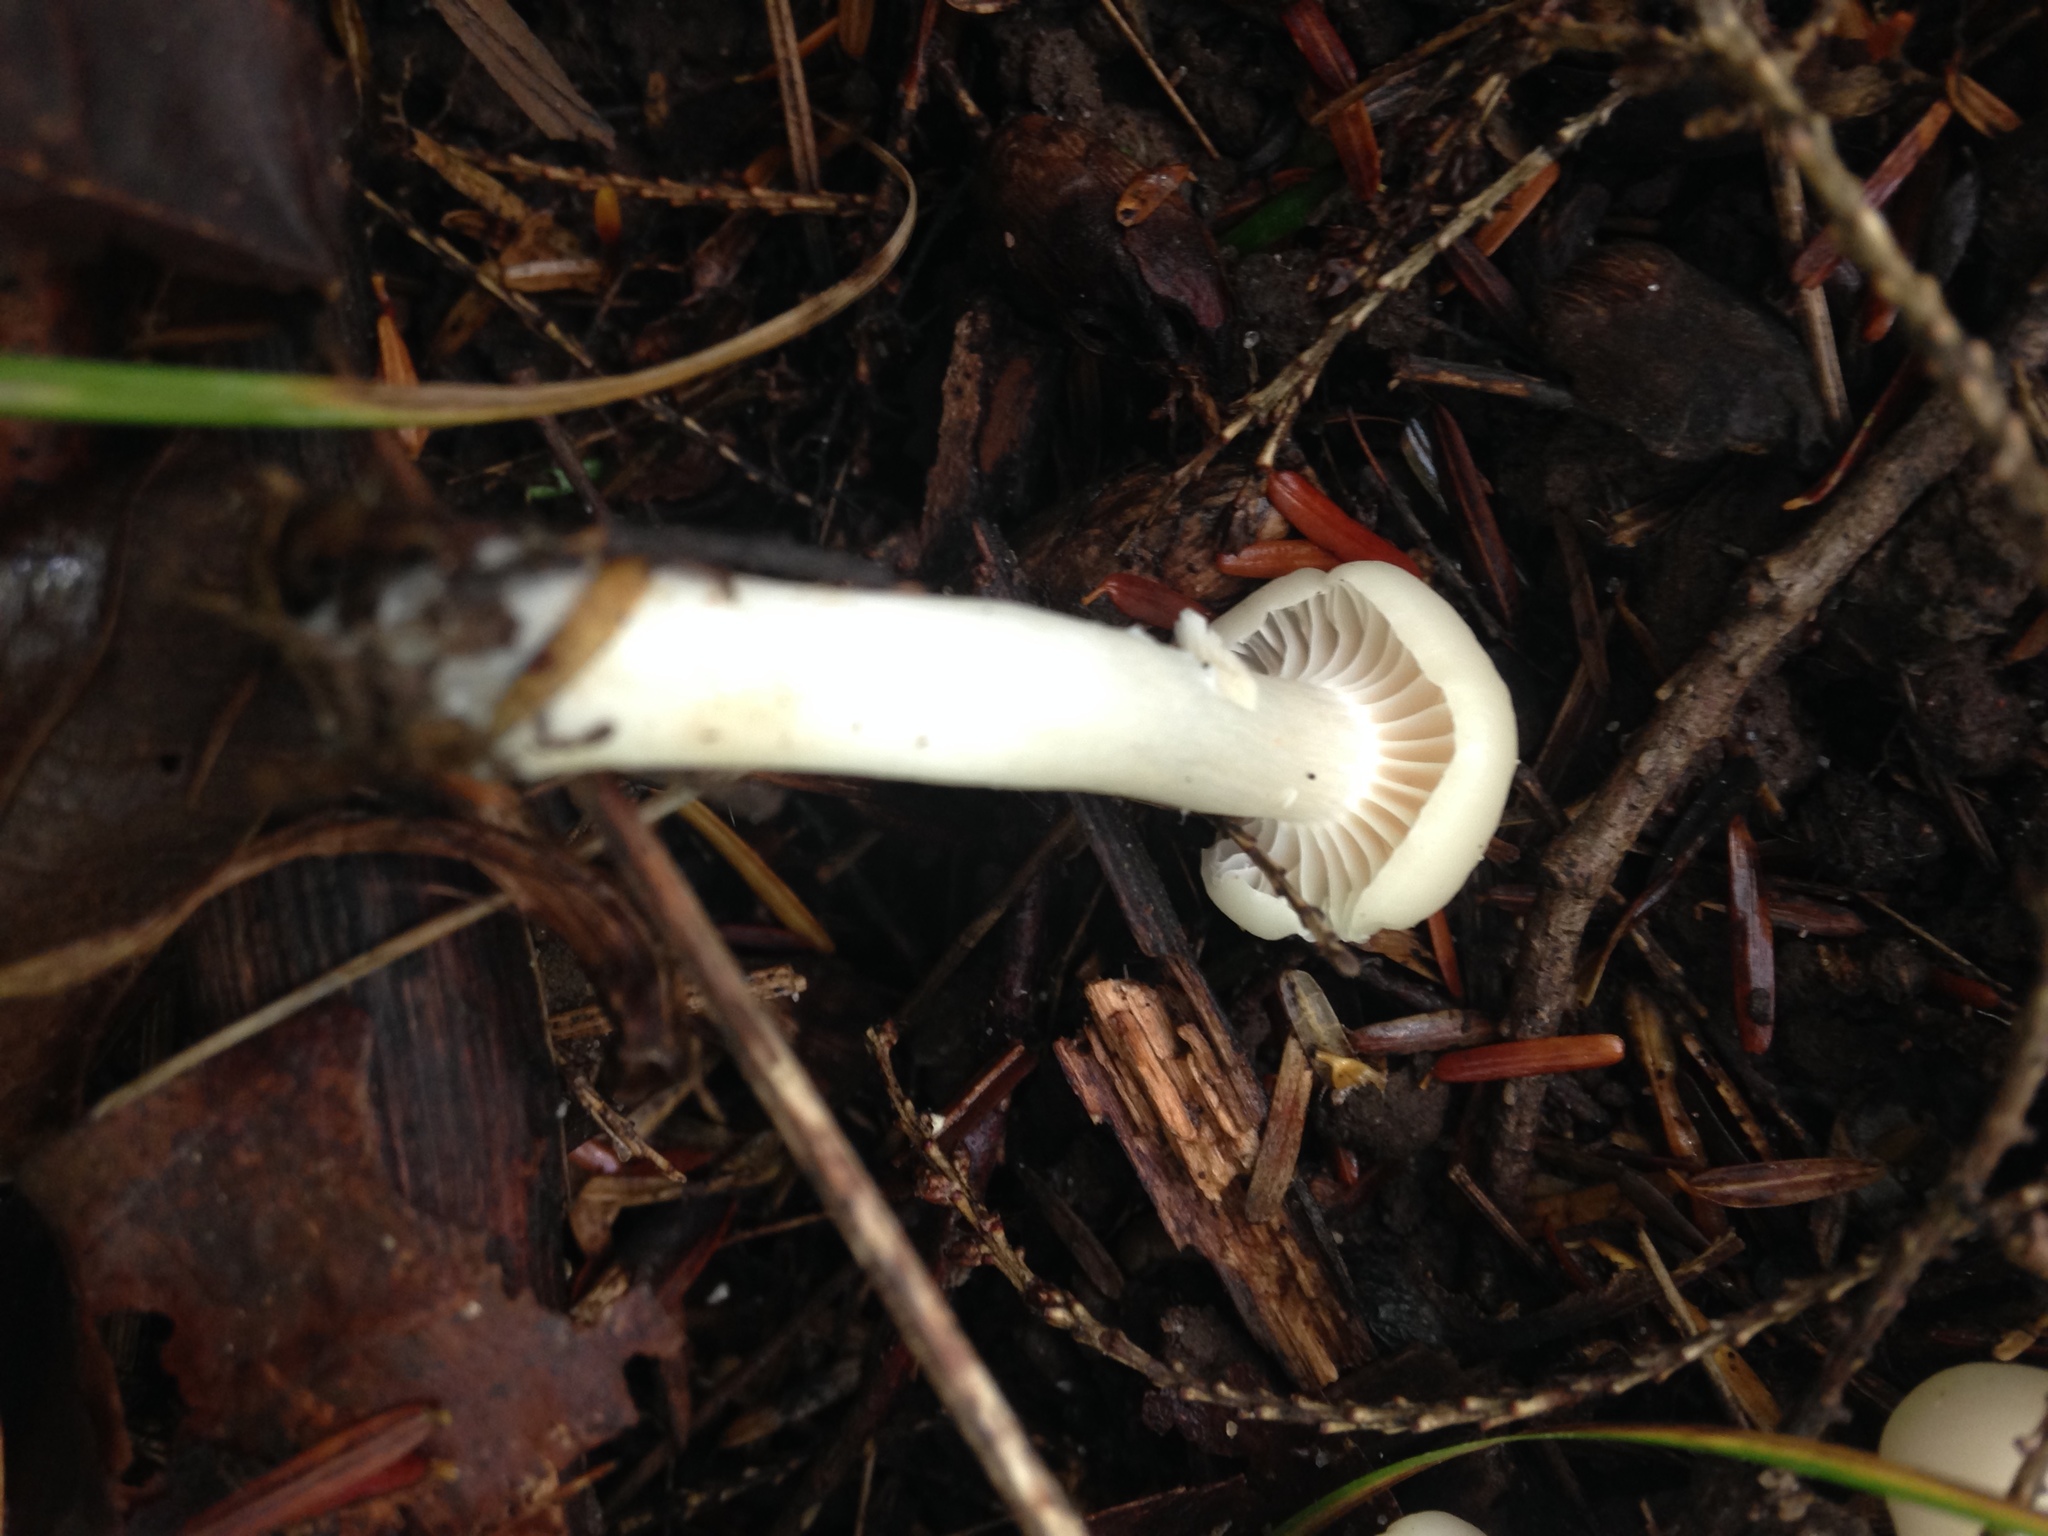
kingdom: Fungi
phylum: Basidiomycota
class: Agaricomycetes
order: Agaricales
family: Hygrophoraceae
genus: Cuphophyllus
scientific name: Cuphophyllus borealis
